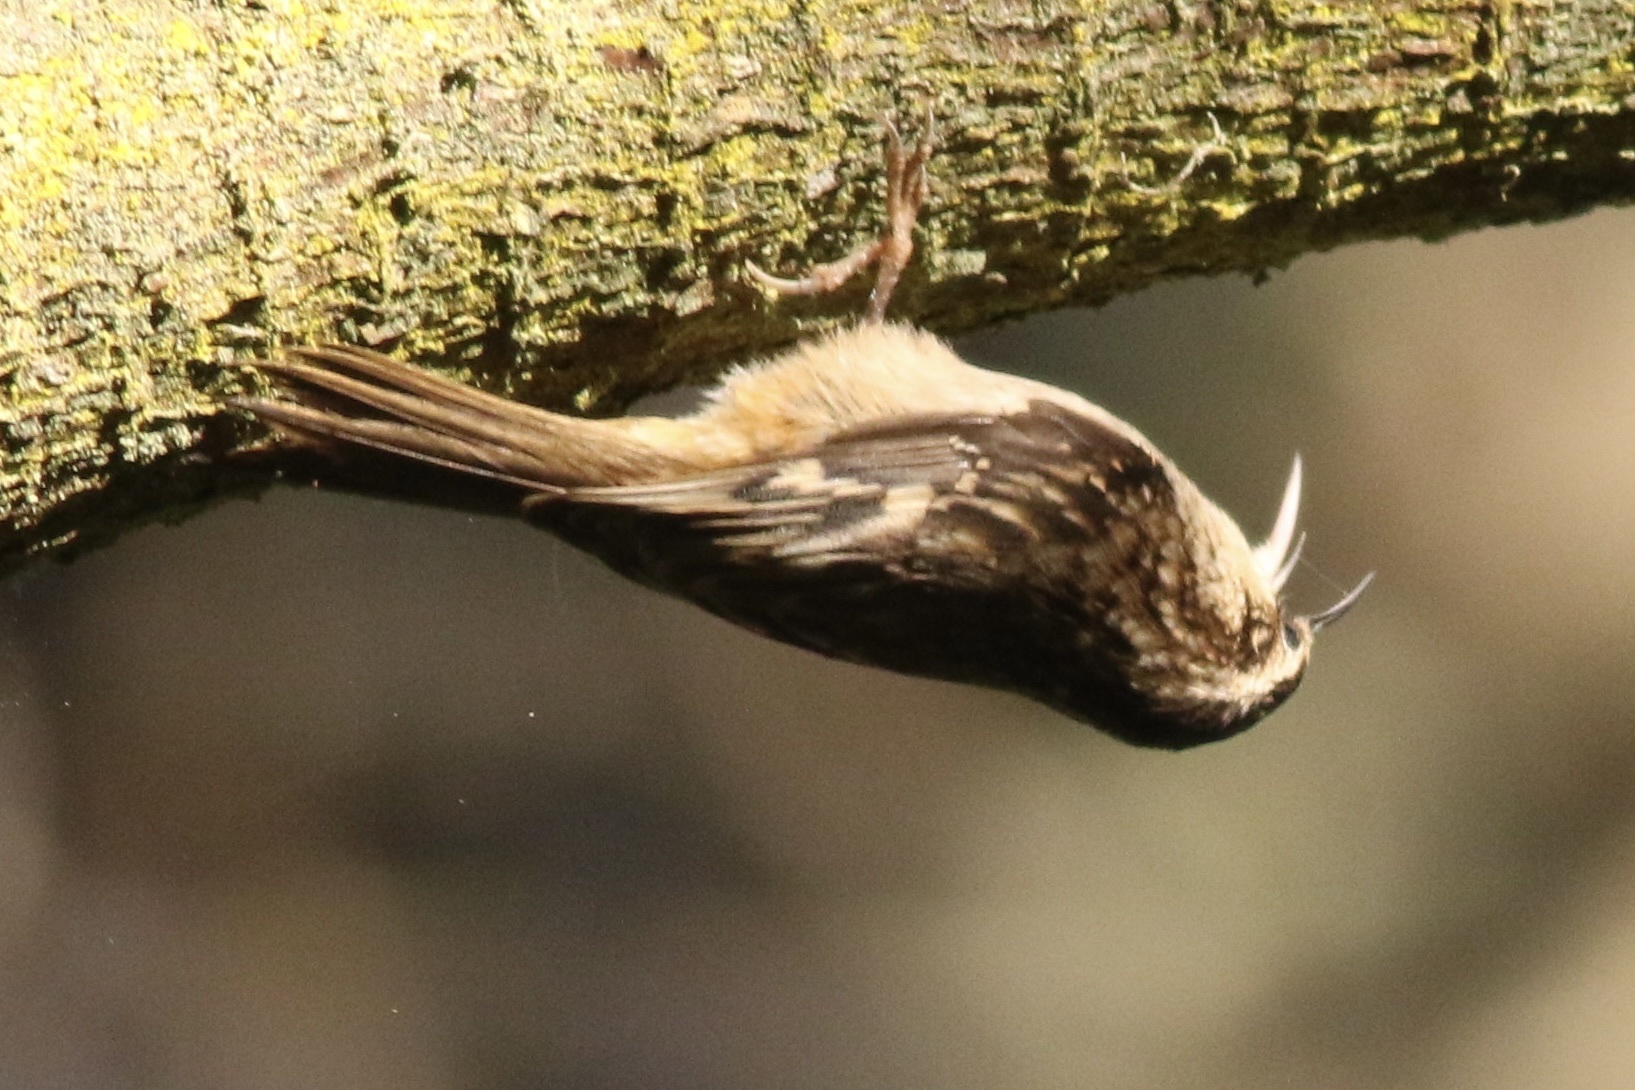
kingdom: Animalia
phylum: Chordata
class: Aves
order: Passeriformes
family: Certhiidae
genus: Certhia
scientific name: Certhia americana
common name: Brown creeper
